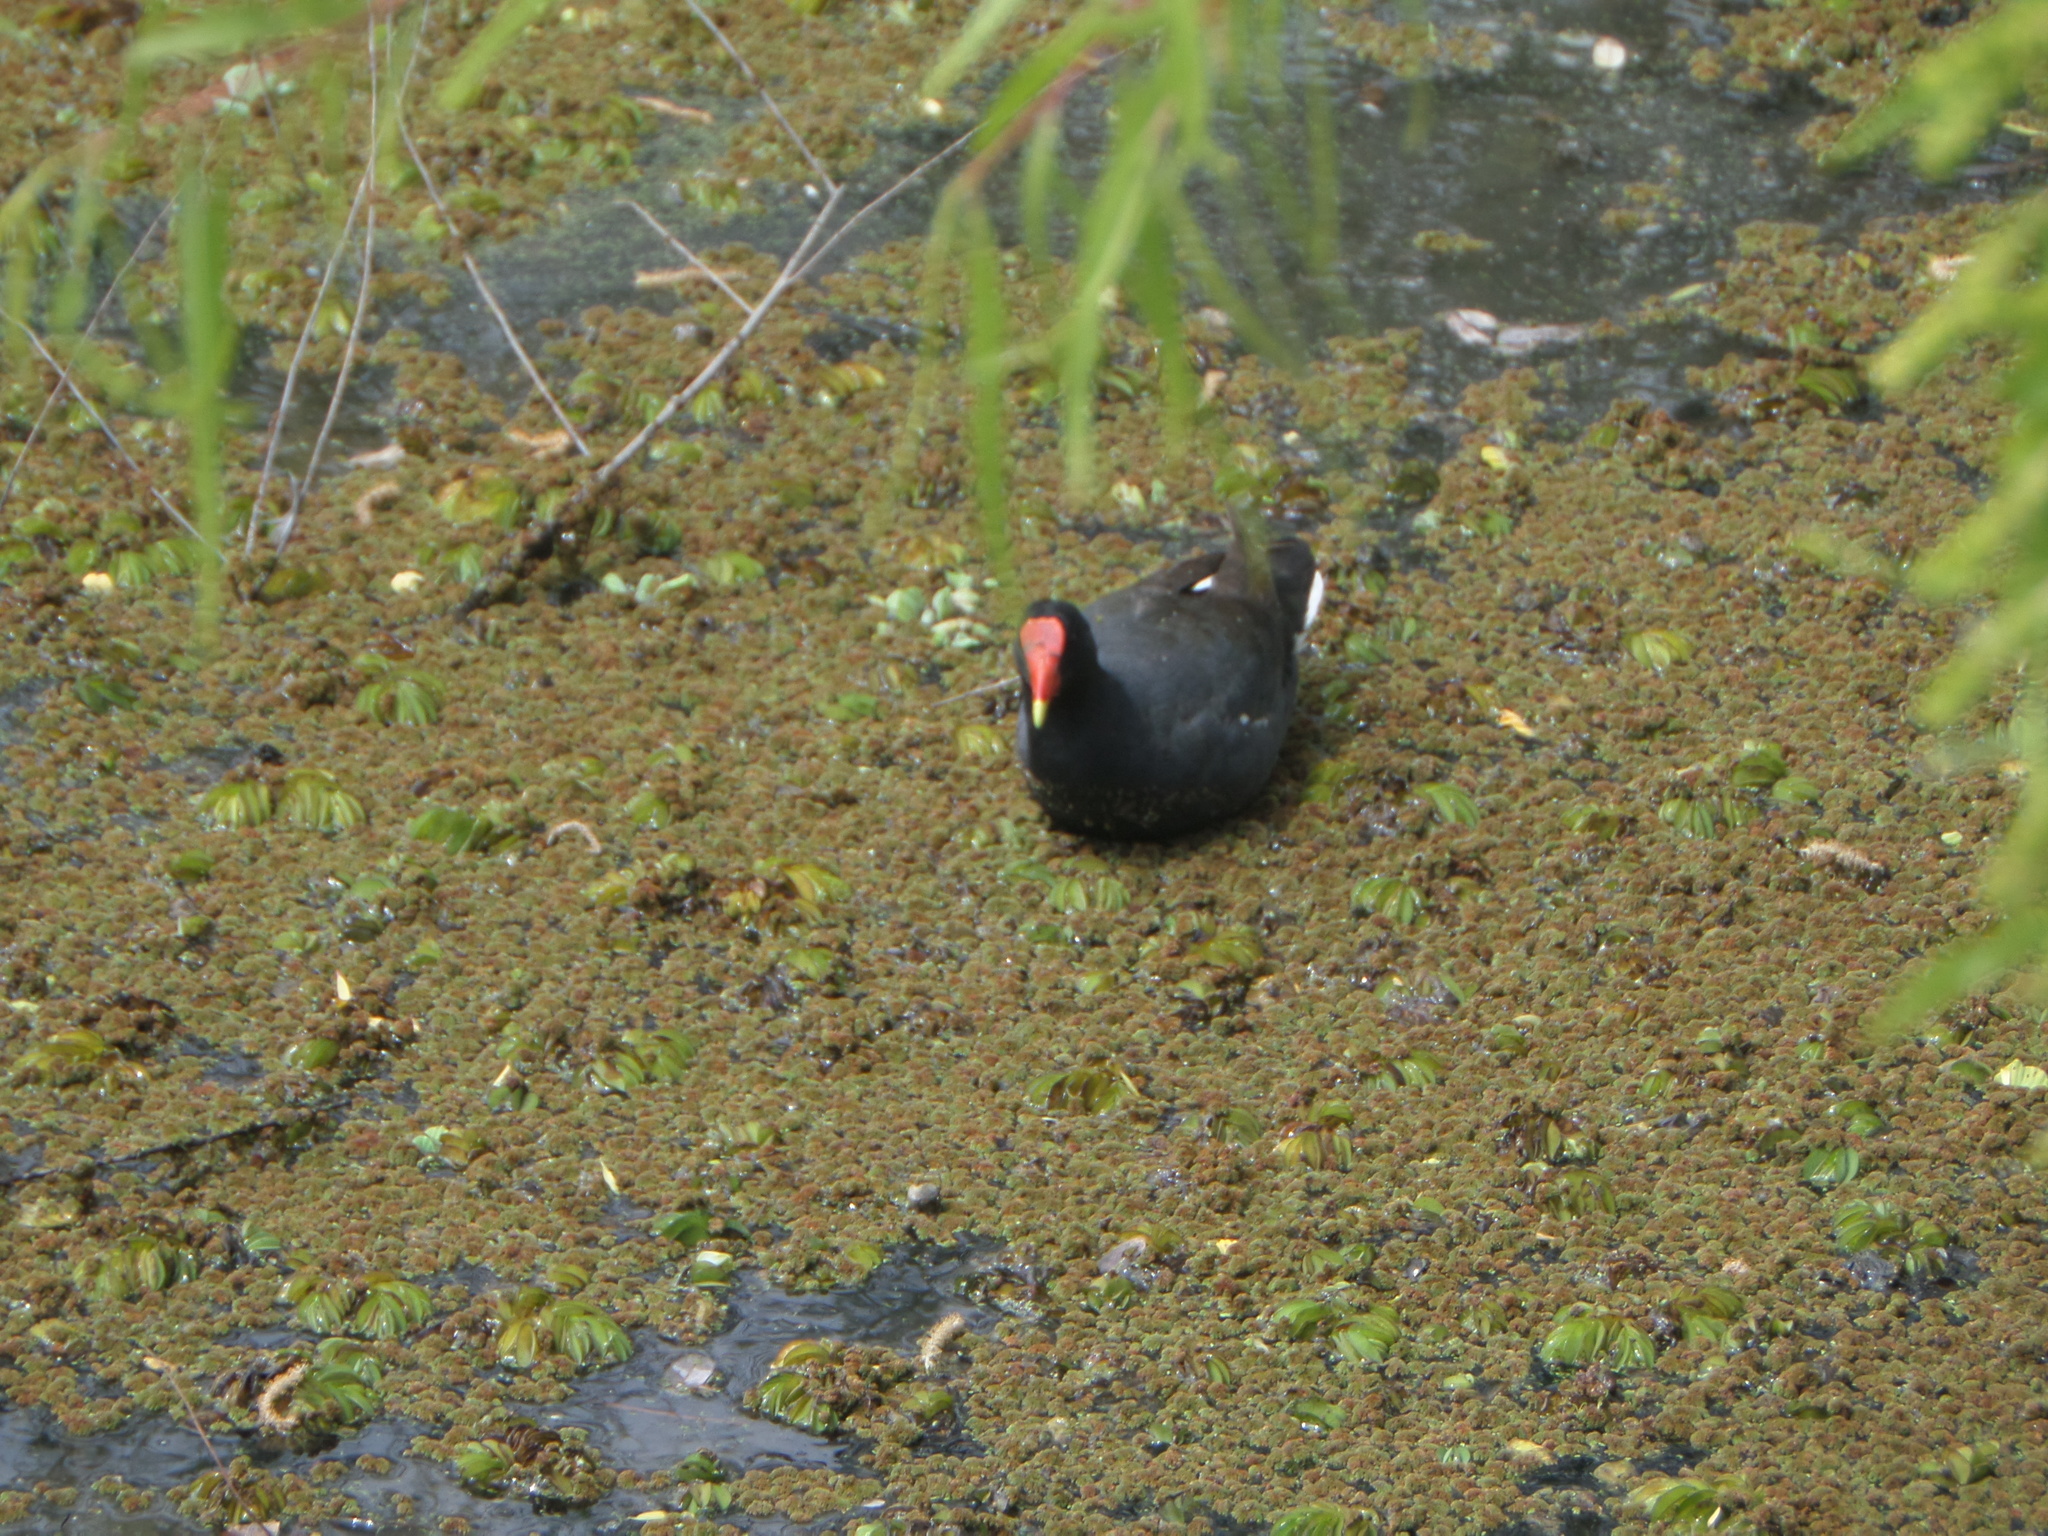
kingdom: Animalia
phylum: Chordata
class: Aves
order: Gruiformes
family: Rallidae
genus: Gallinula
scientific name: Gallinula chloropus
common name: Common moorhen
